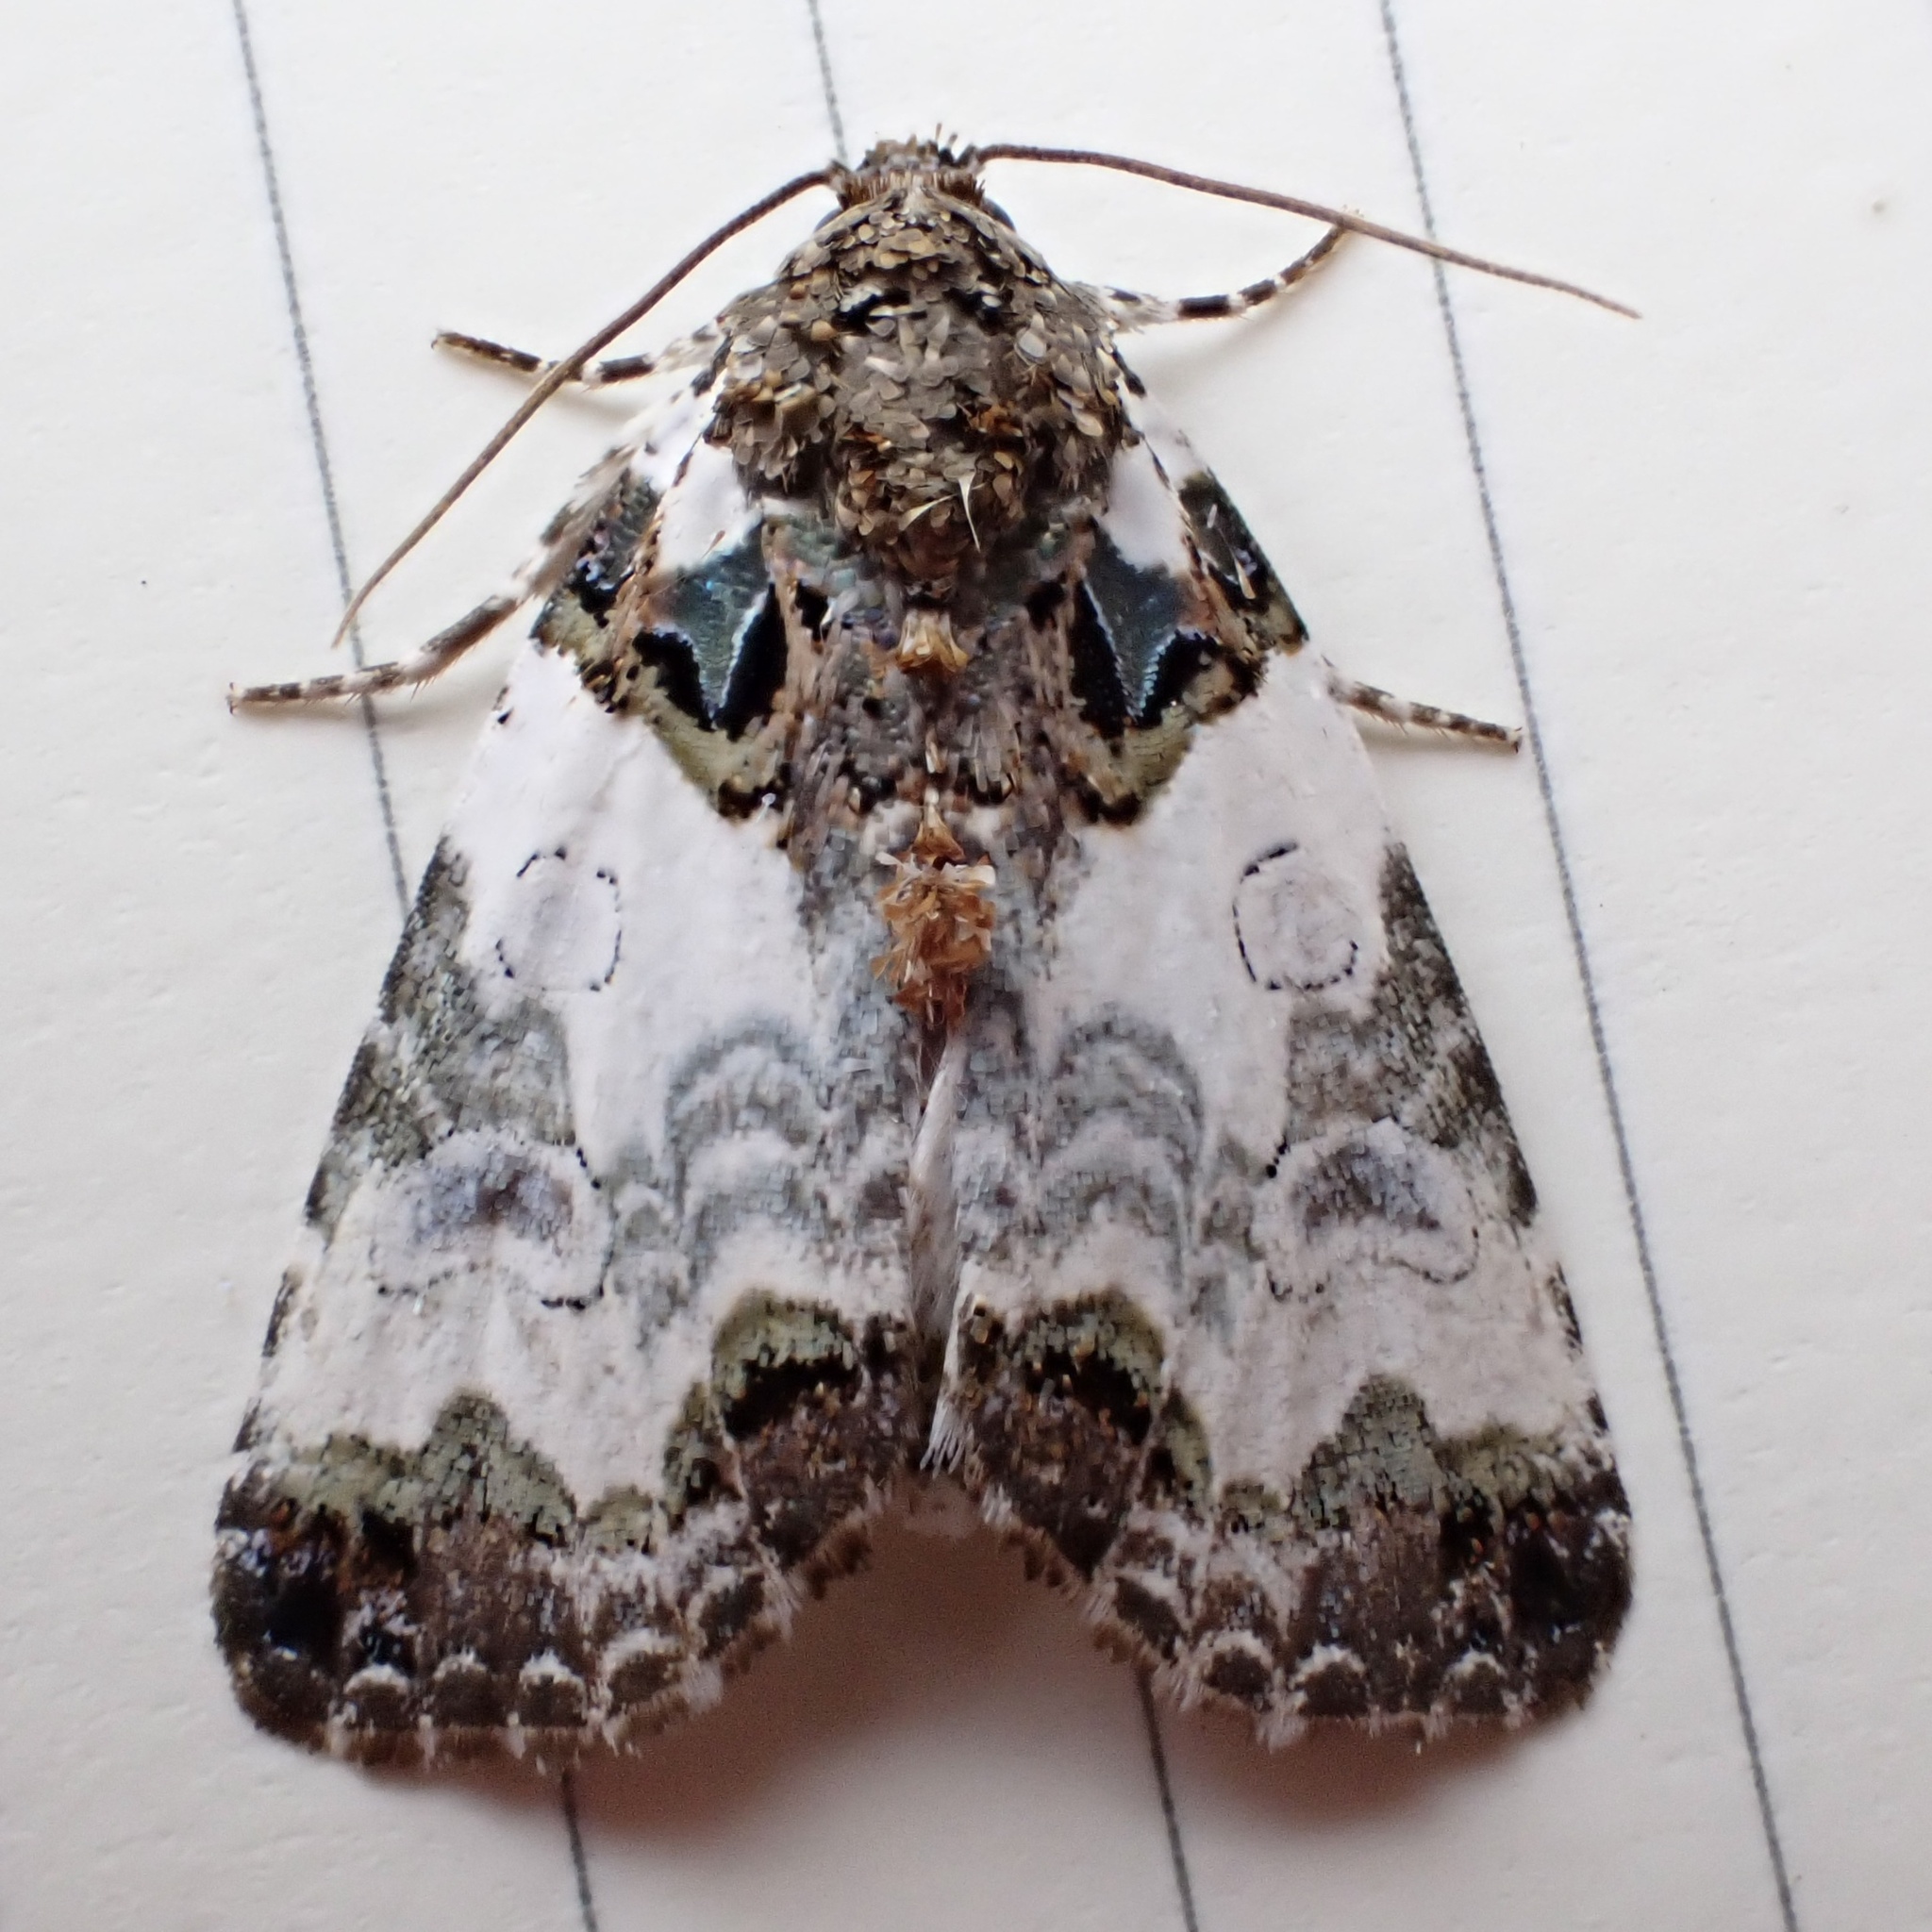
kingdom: Animalia
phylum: Arthropoda
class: Insecta
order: Lepidoptera
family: Noctuidae
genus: Cerma
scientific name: Cerma cerintha
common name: Tufted bird-dropping moth
